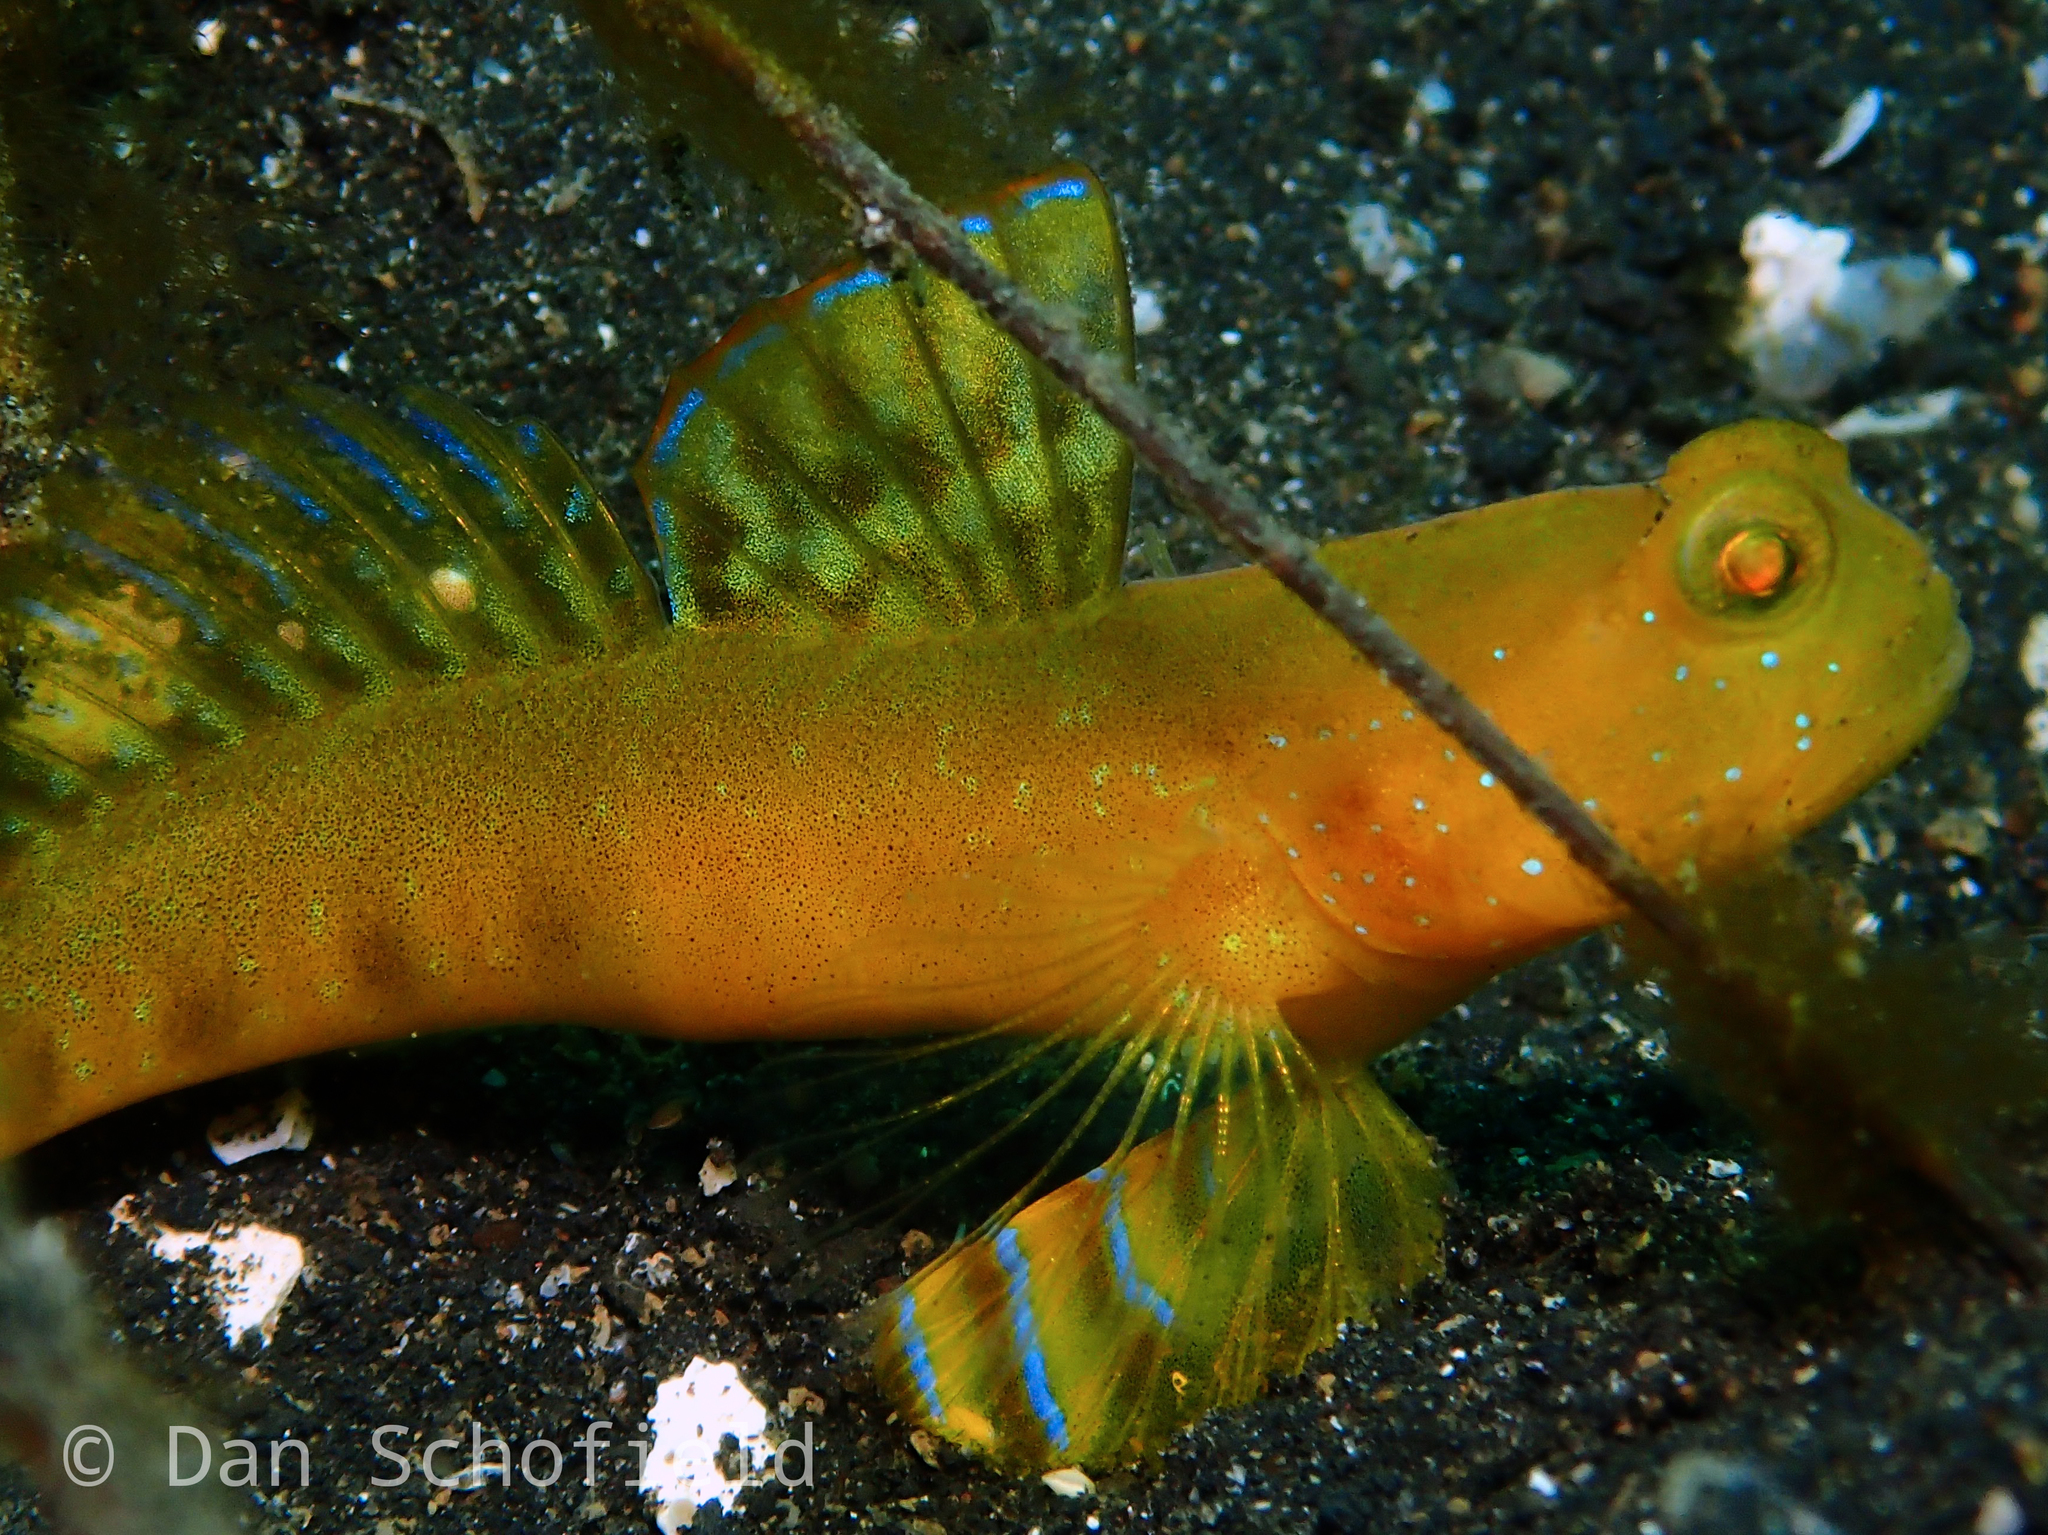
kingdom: Animalia
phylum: Chordata
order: Perciformes
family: Gobiidae
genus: Cryptocentrus
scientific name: Cryptocentrus sericus
